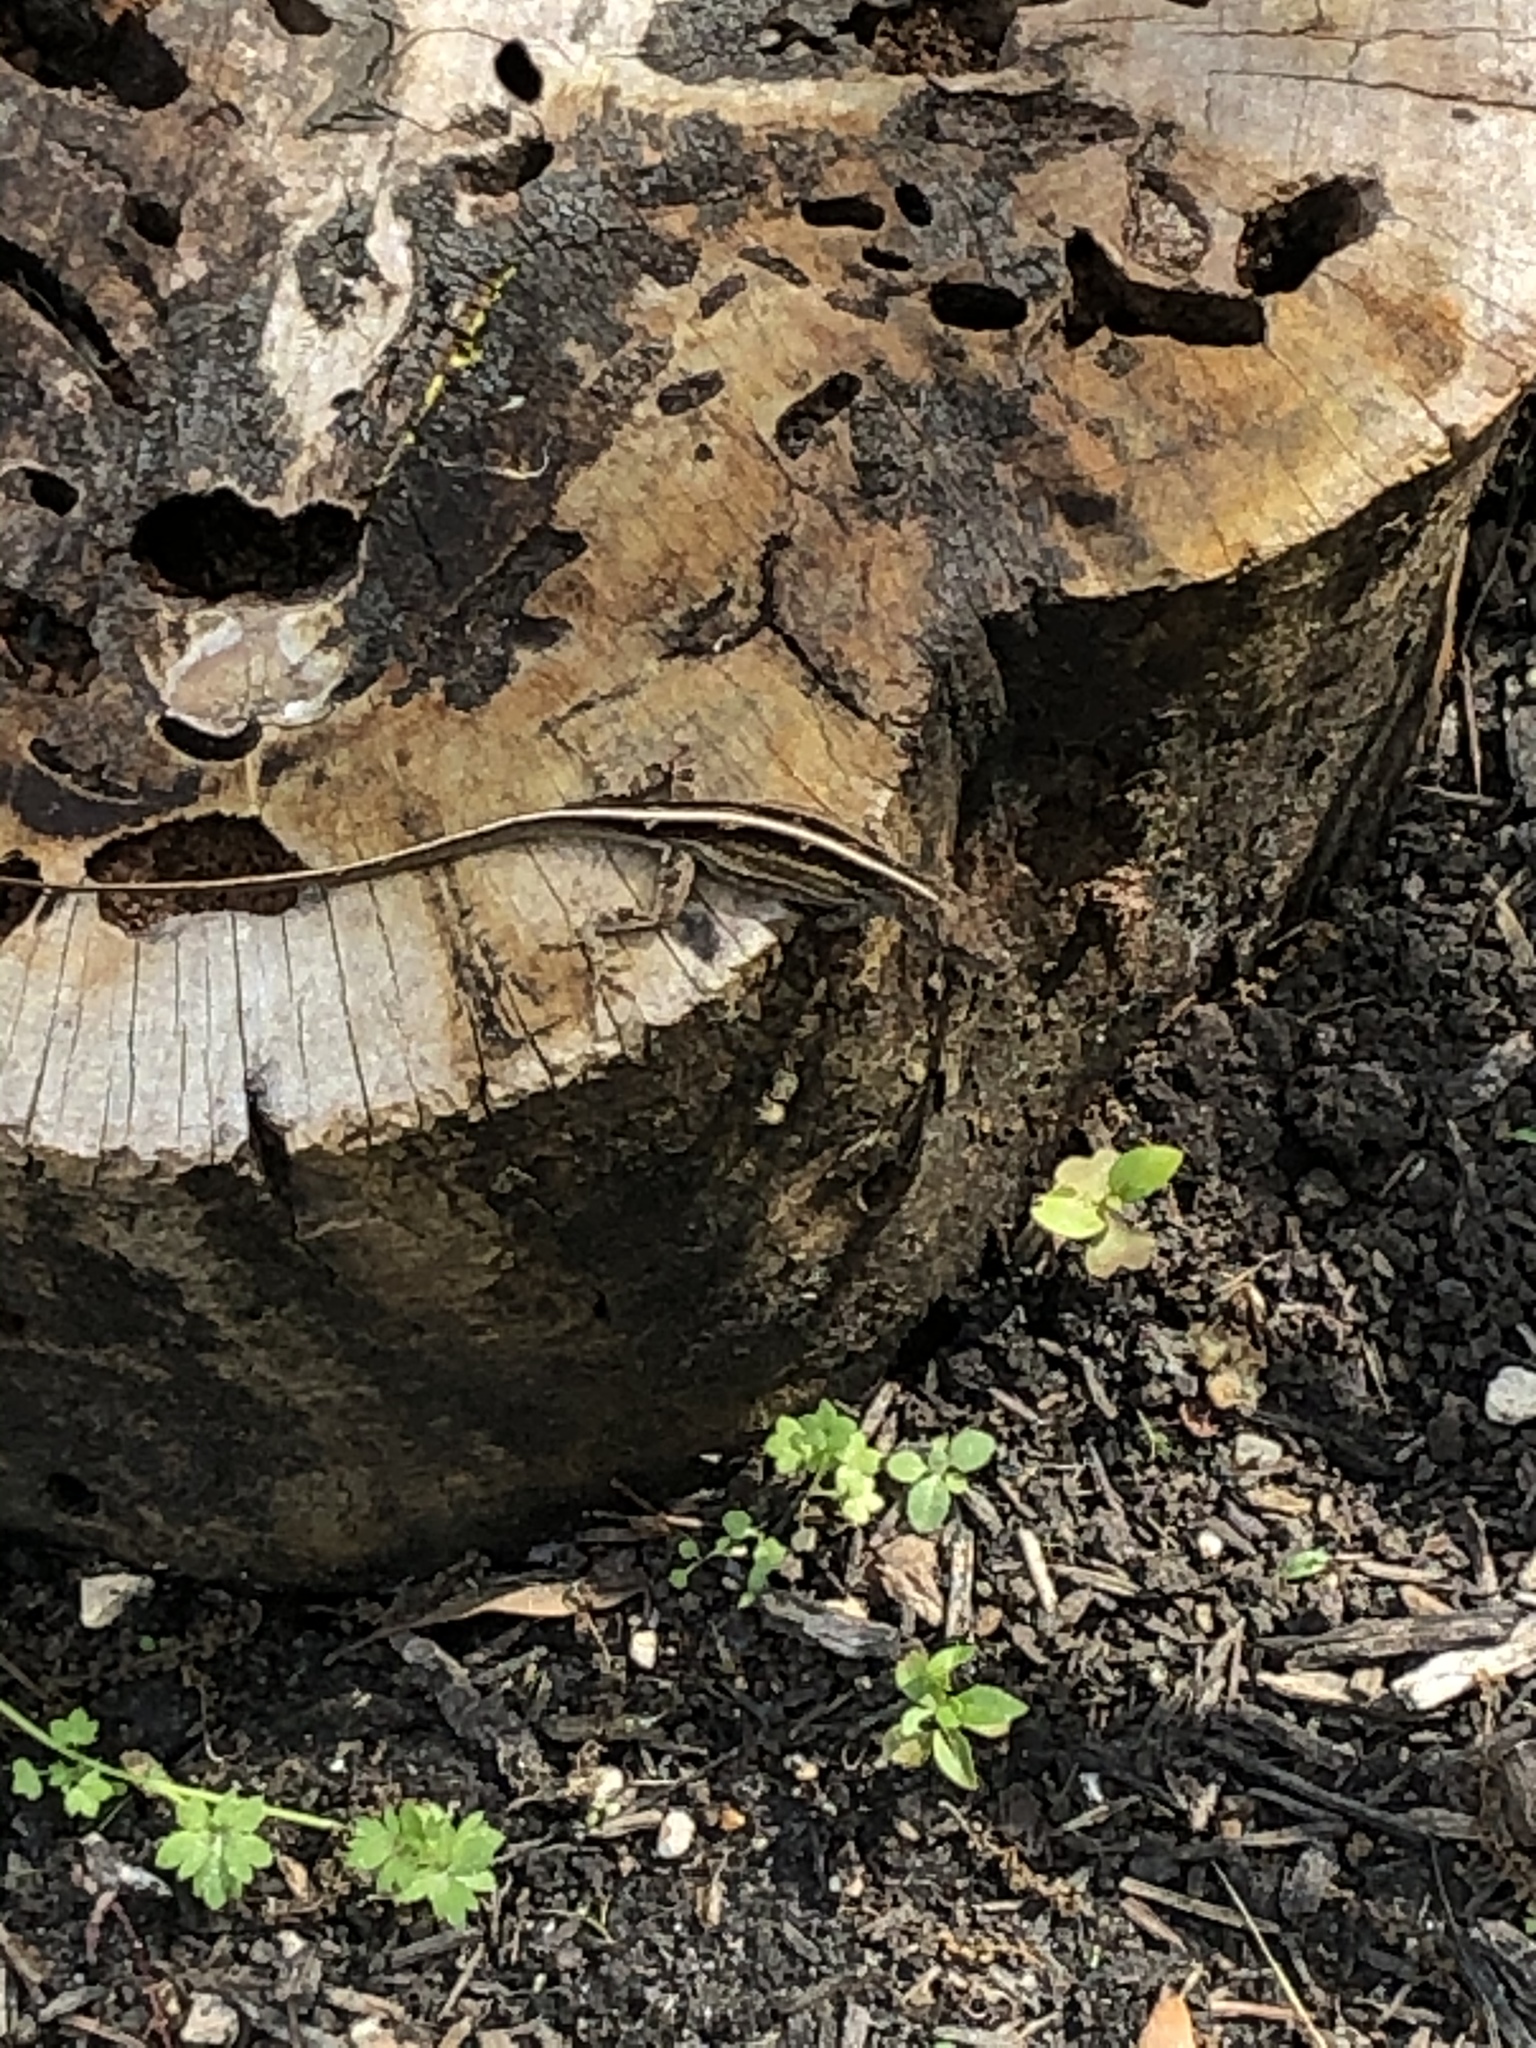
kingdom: Animalia
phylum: Chordata
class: Squamata
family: Dactyloidae
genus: Anolis
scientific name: Anolis sagrei
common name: Brown anole
